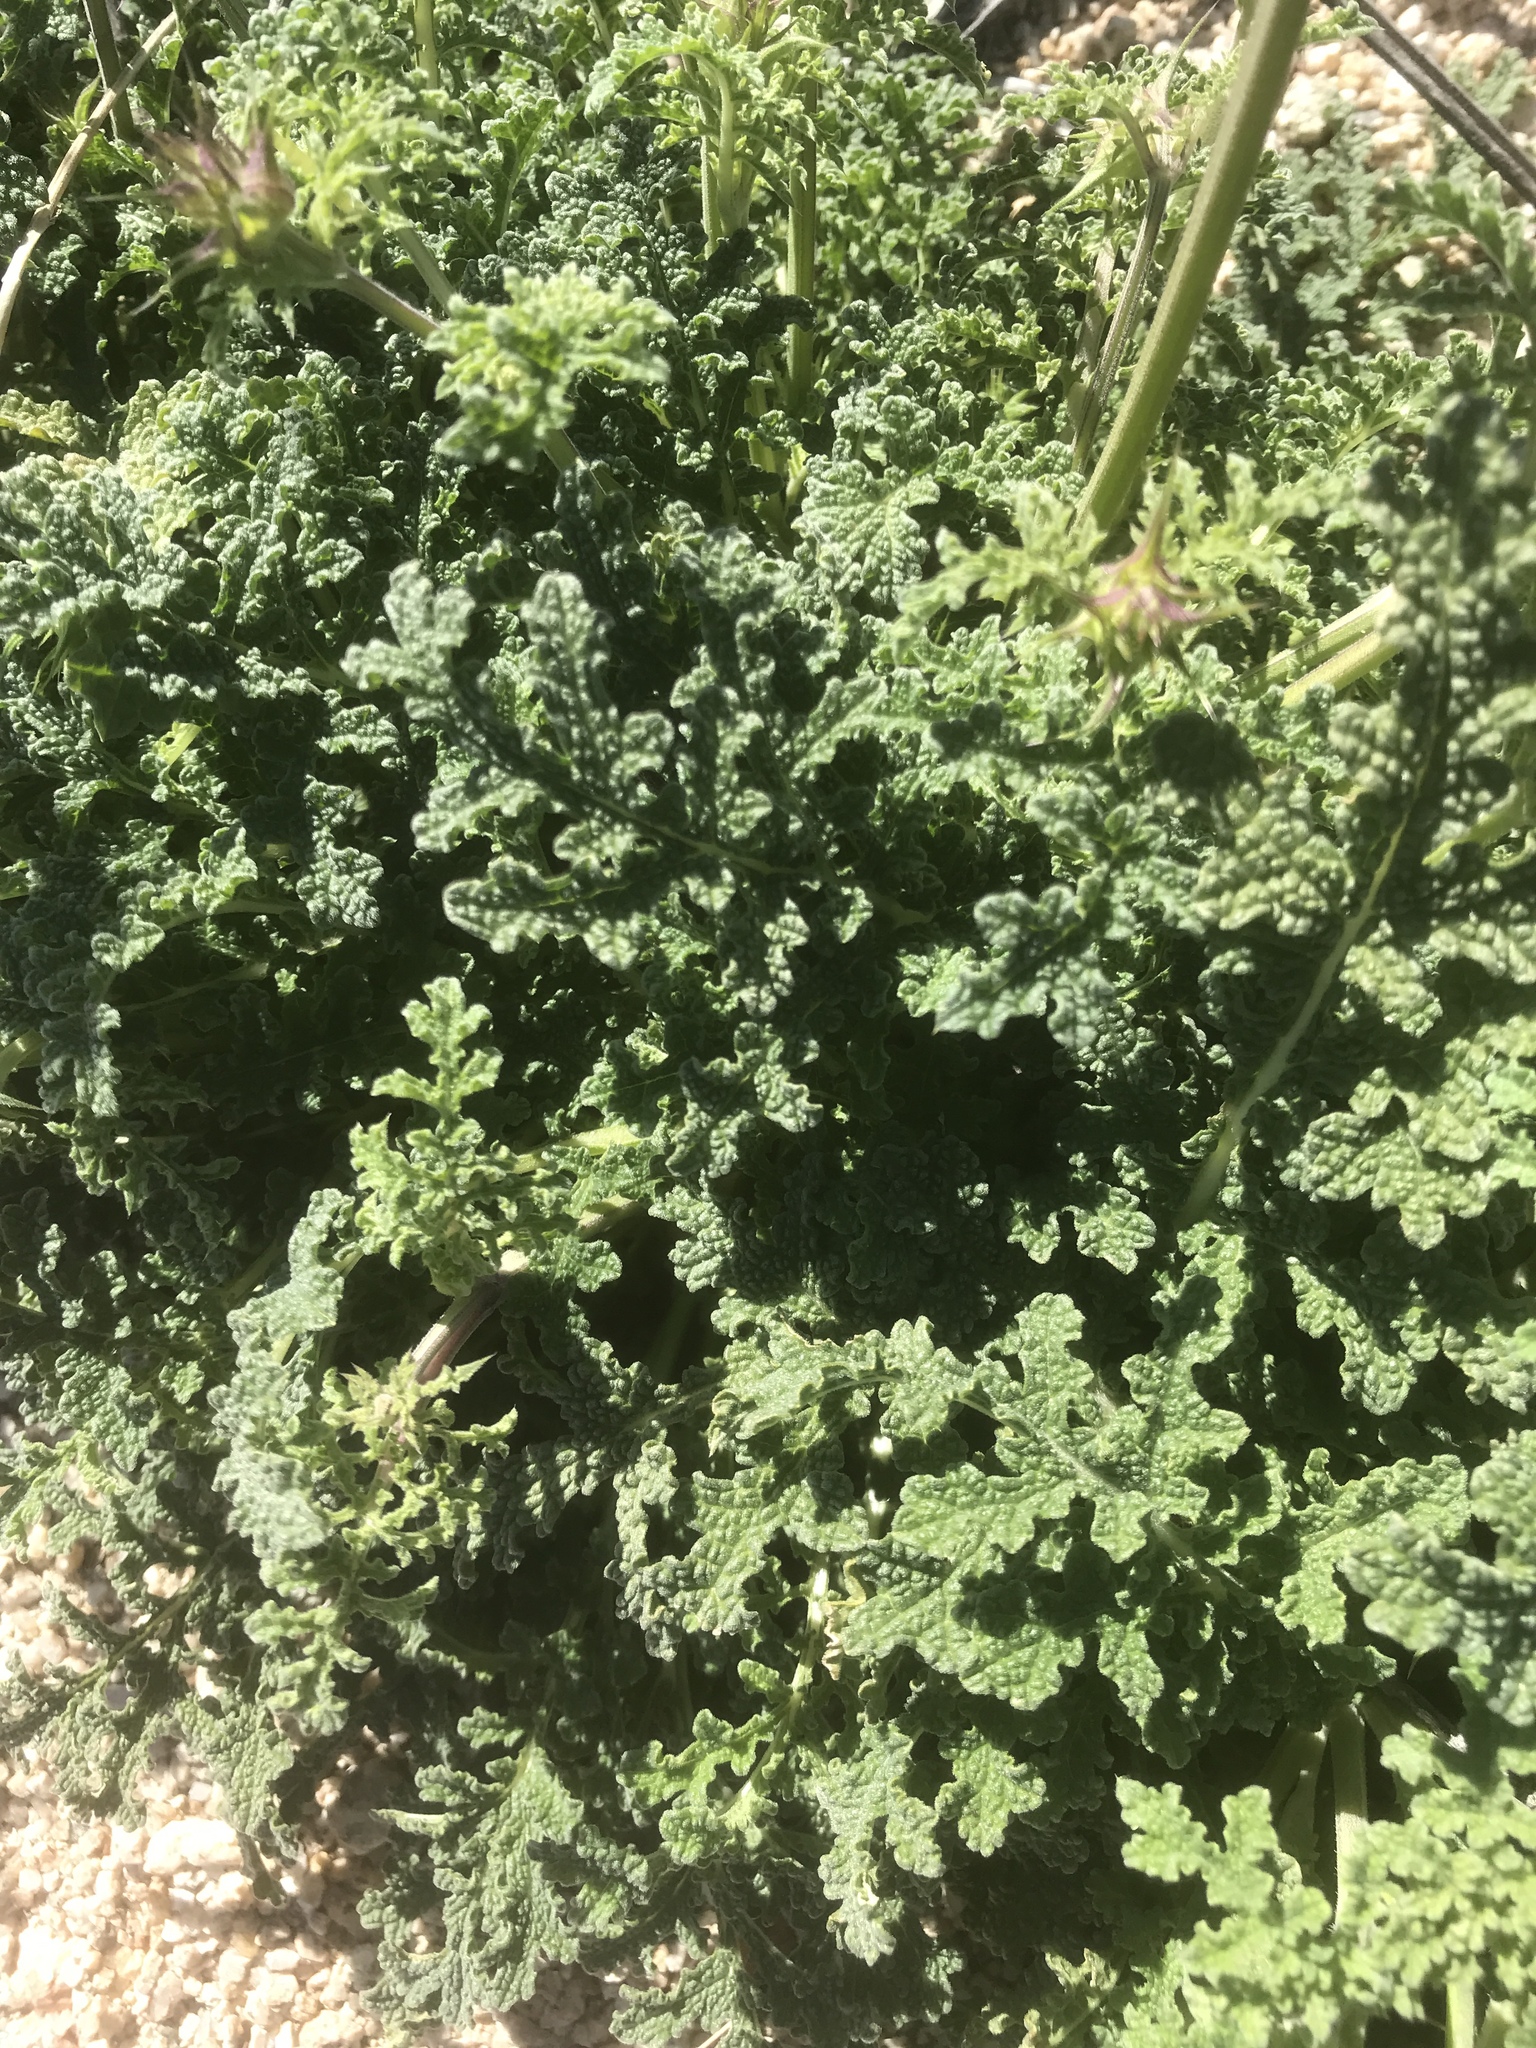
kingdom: Plantae
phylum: Tracheophyta
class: Magnoliopsida
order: Lamiales
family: Lamiaceae
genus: Salvia
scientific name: Salvia columbariae
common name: Chia
